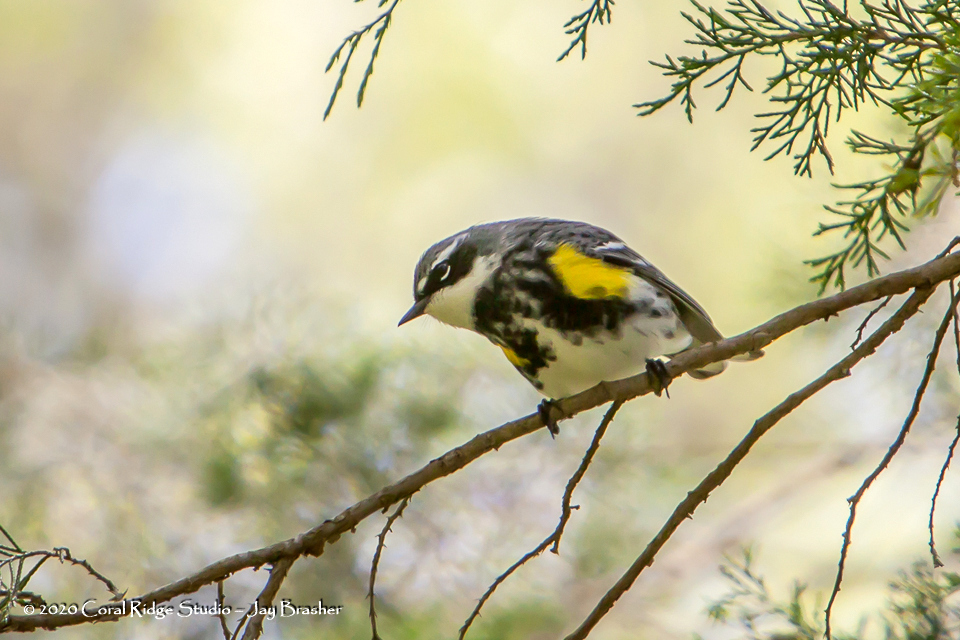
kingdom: Animalia
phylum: Chordata
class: Aves
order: Passeriformes
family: Parulidae
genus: Setophaga
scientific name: Setophaga coronata
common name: Myrtle warbler
